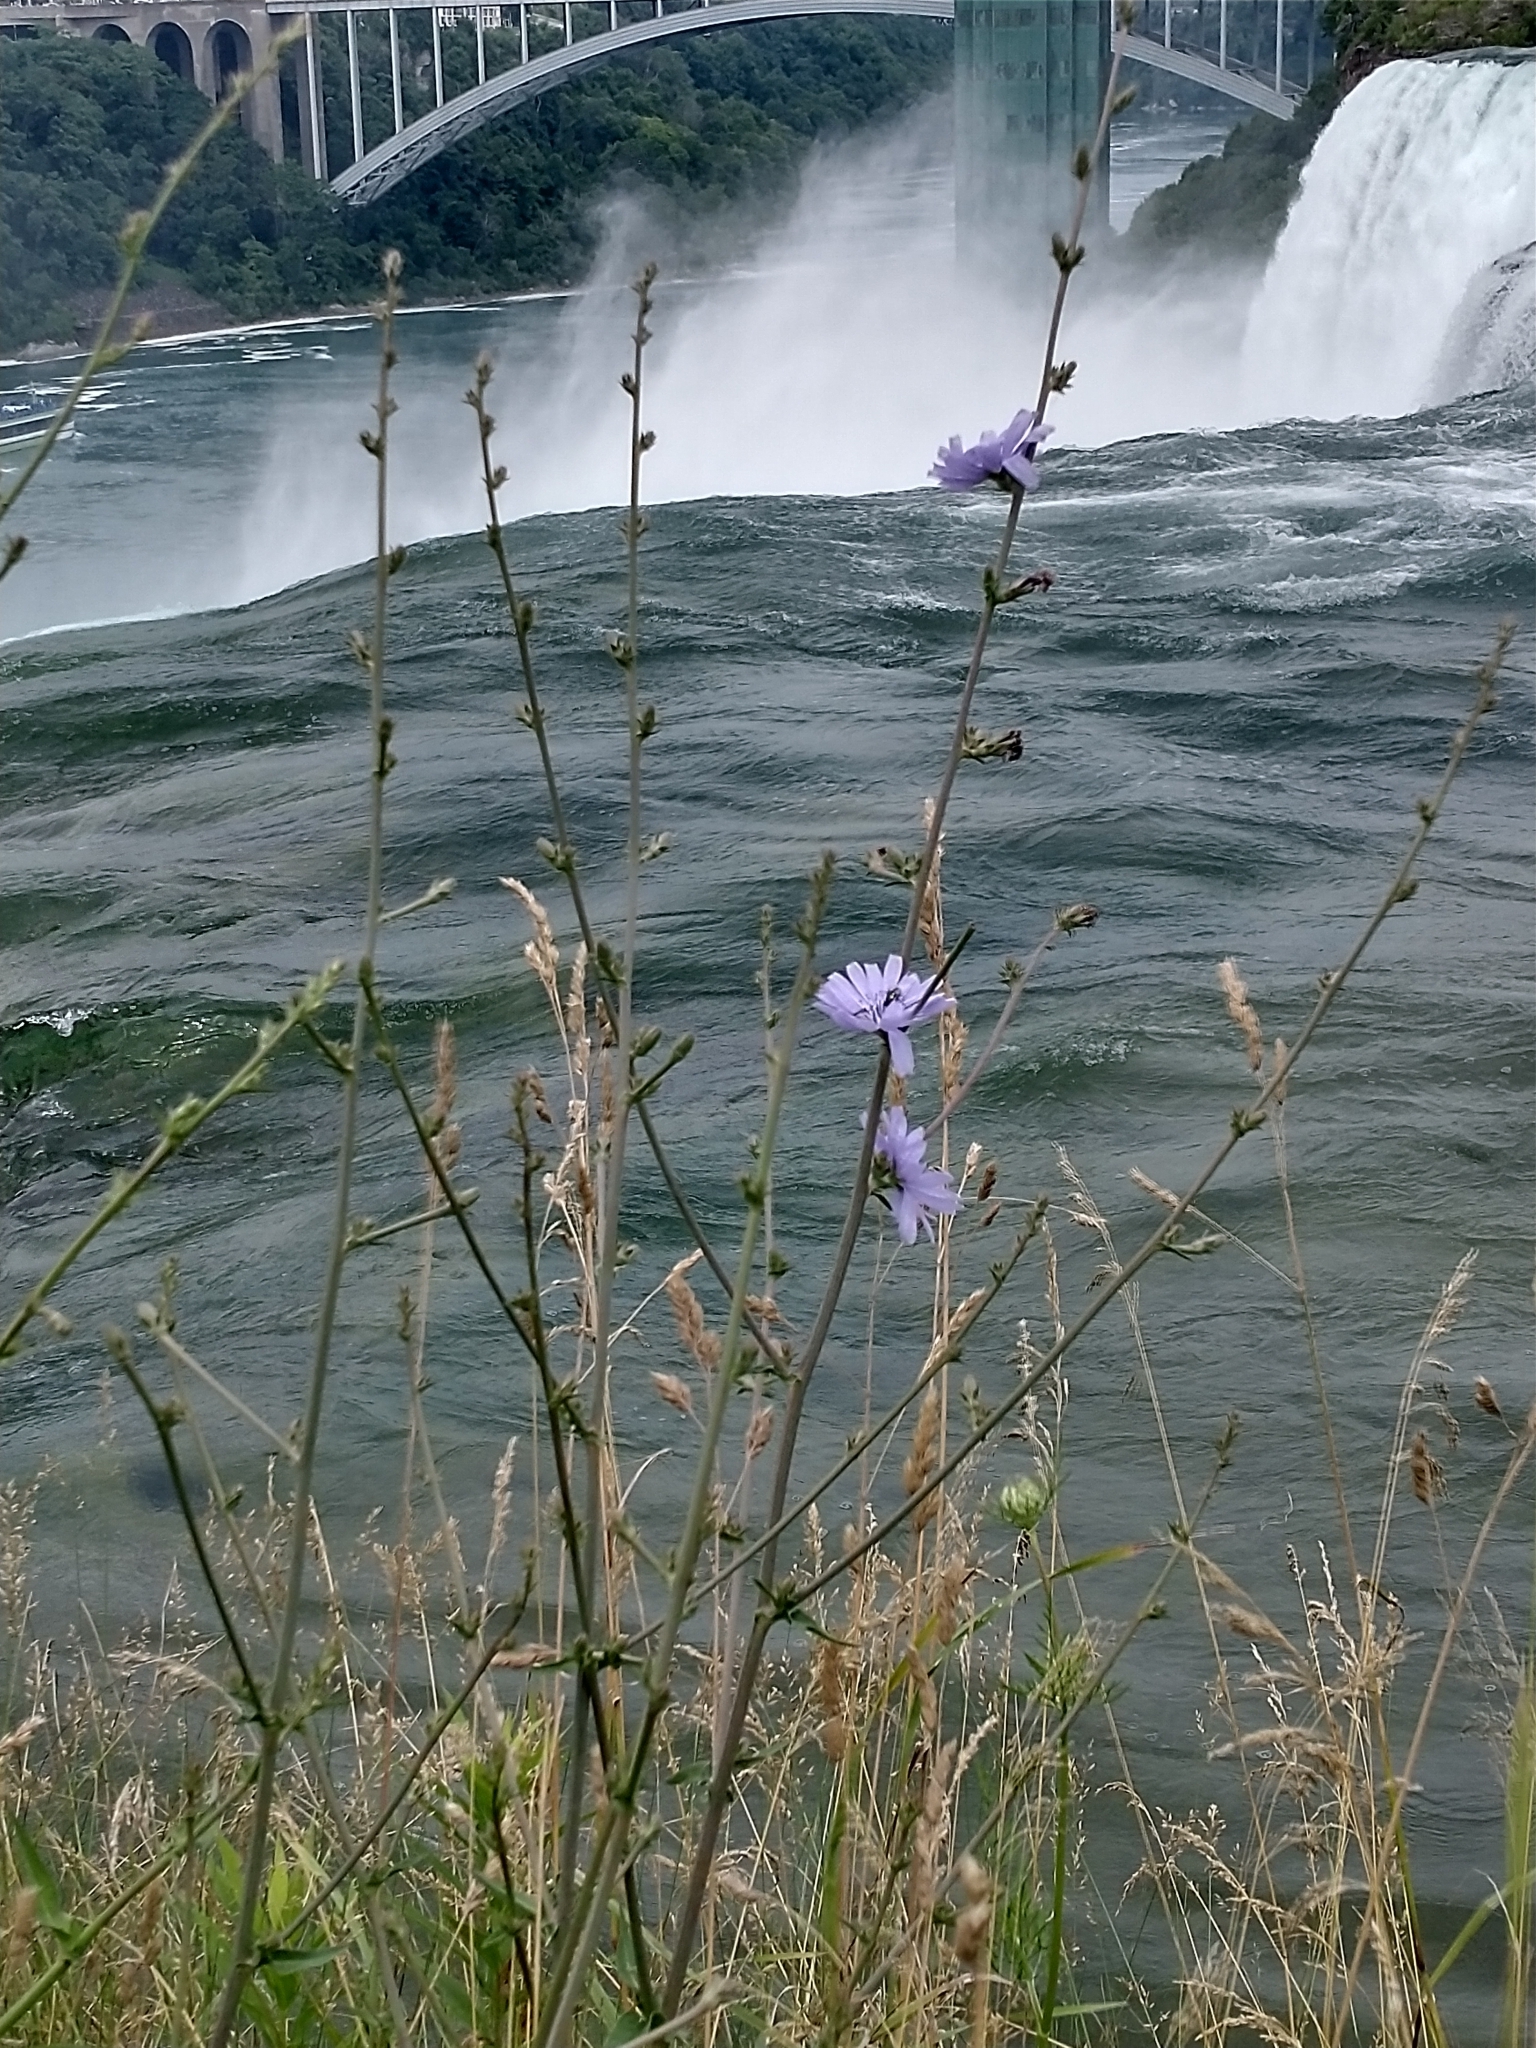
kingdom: Plantae
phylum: Tracheophyta
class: Magnoliopsida
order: Asterales
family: Asteraceae
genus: Cichorium
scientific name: Cichorium intybus
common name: Chicory
